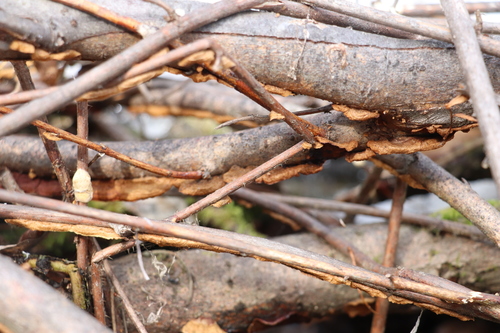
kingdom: Fungi
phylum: Basidiomycota
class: Agaricomycetes
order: Hymenochaetales
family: Hymenochaetaceae
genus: Hydnoporia
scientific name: Hydnoporia tabacina
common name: Willow glue
